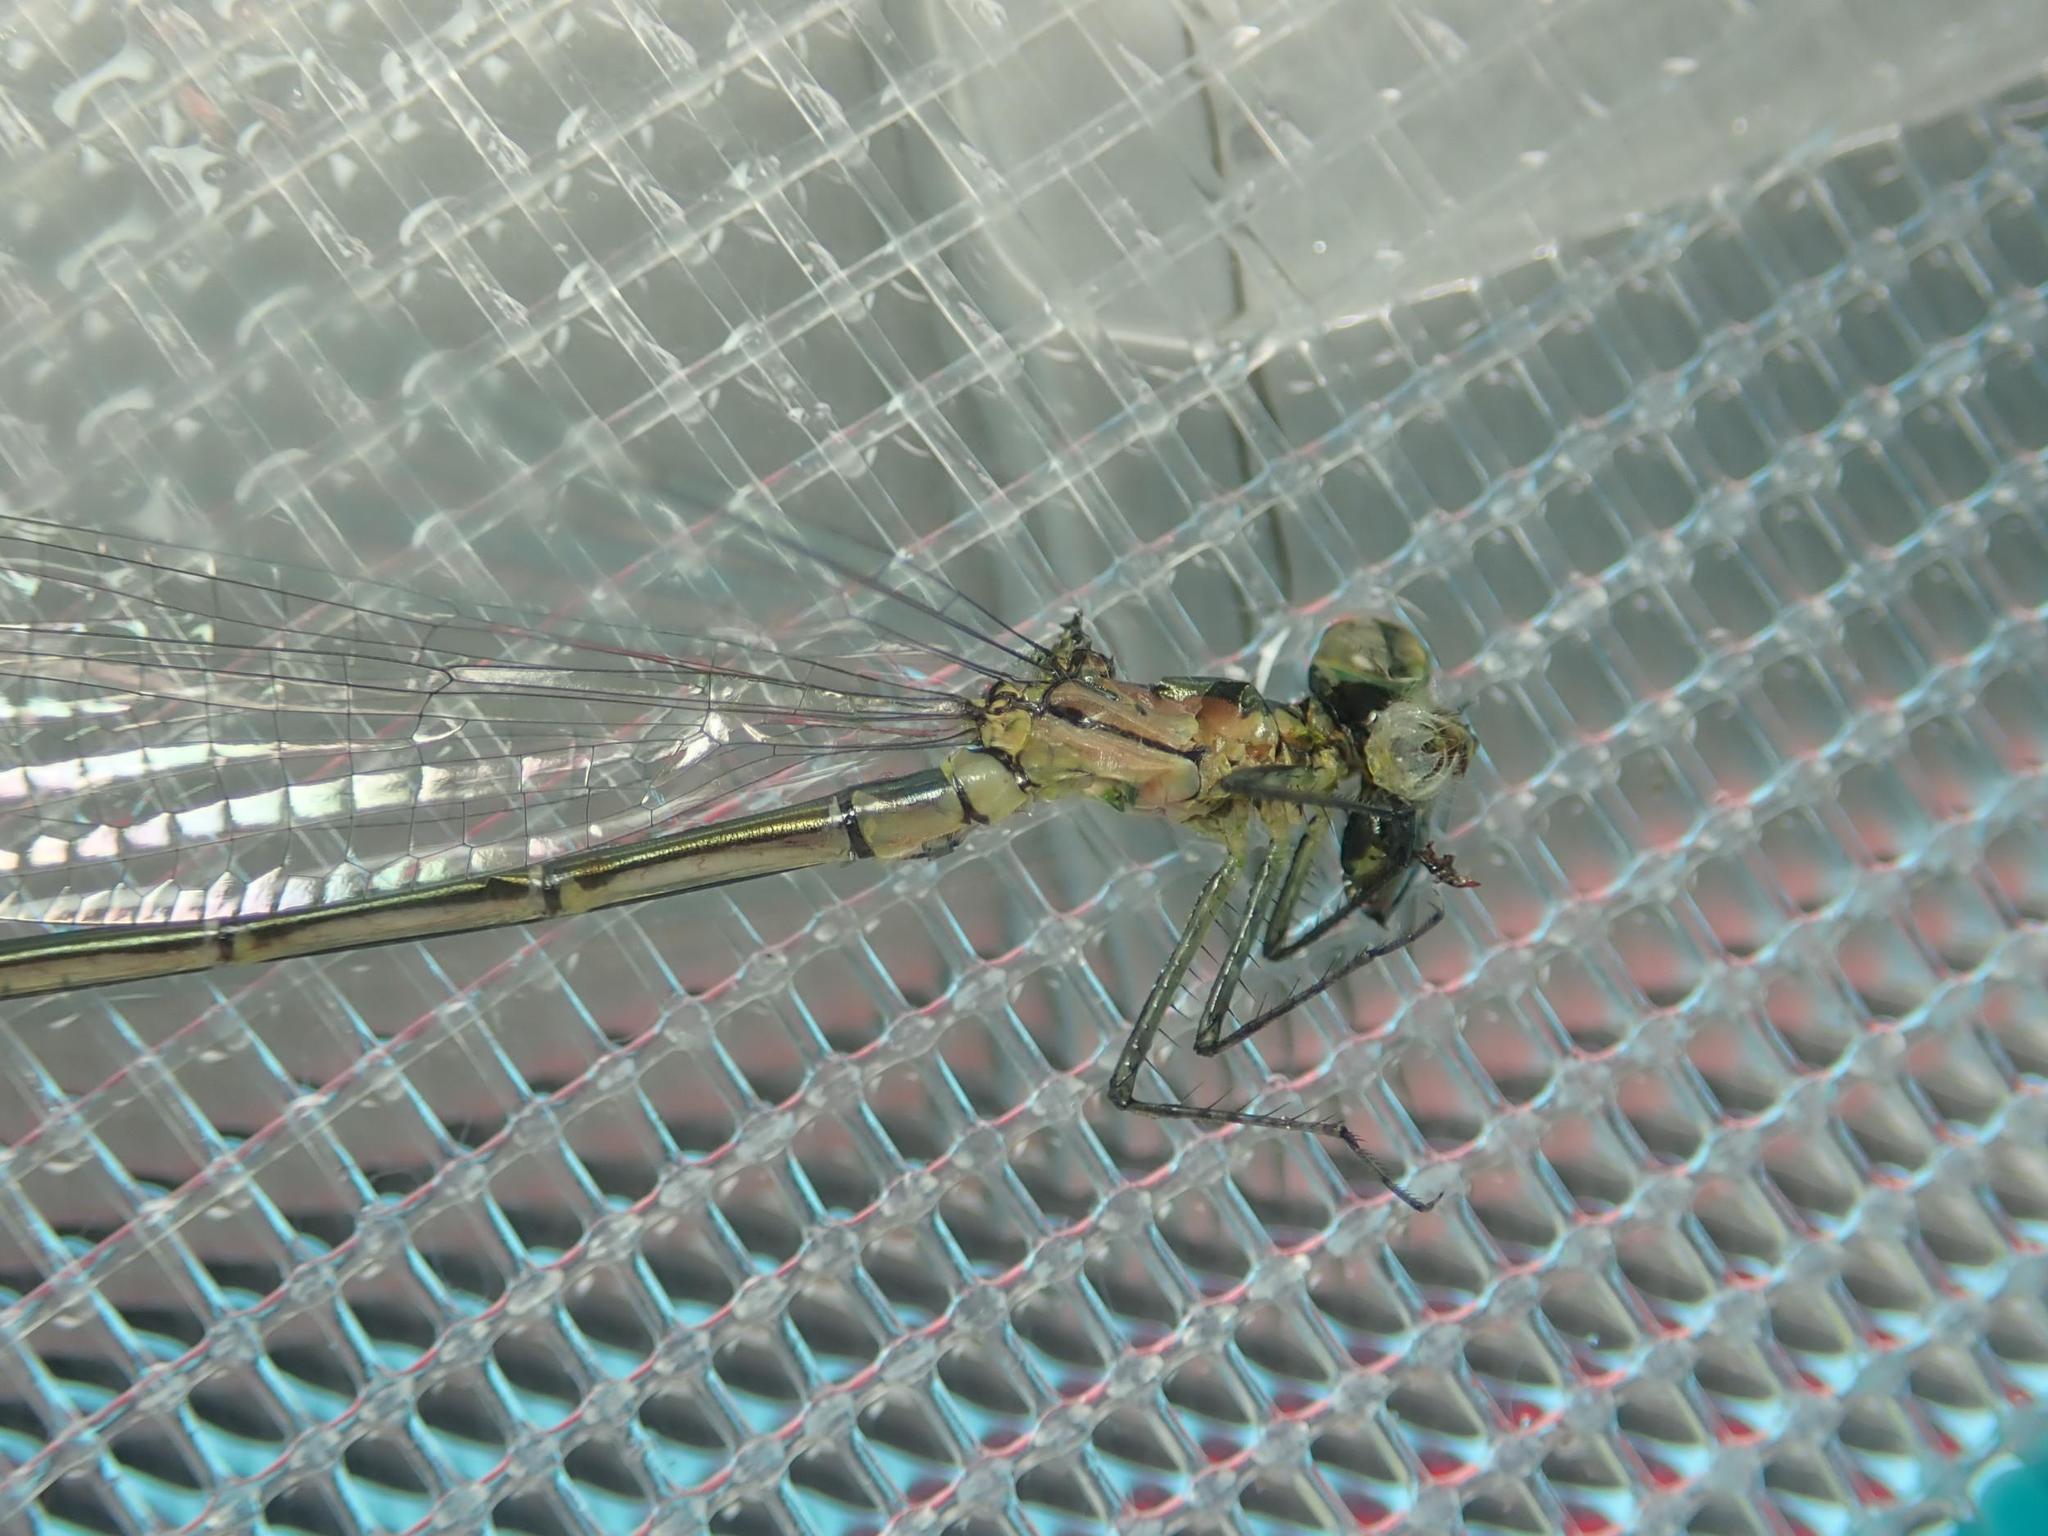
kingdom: Animalia
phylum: Arthropoda
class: Insecta
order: Odonata
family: Coenagrionidae
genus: Erythromma
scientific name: Erythromma viridulum
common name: Small red-eyed damselfly
